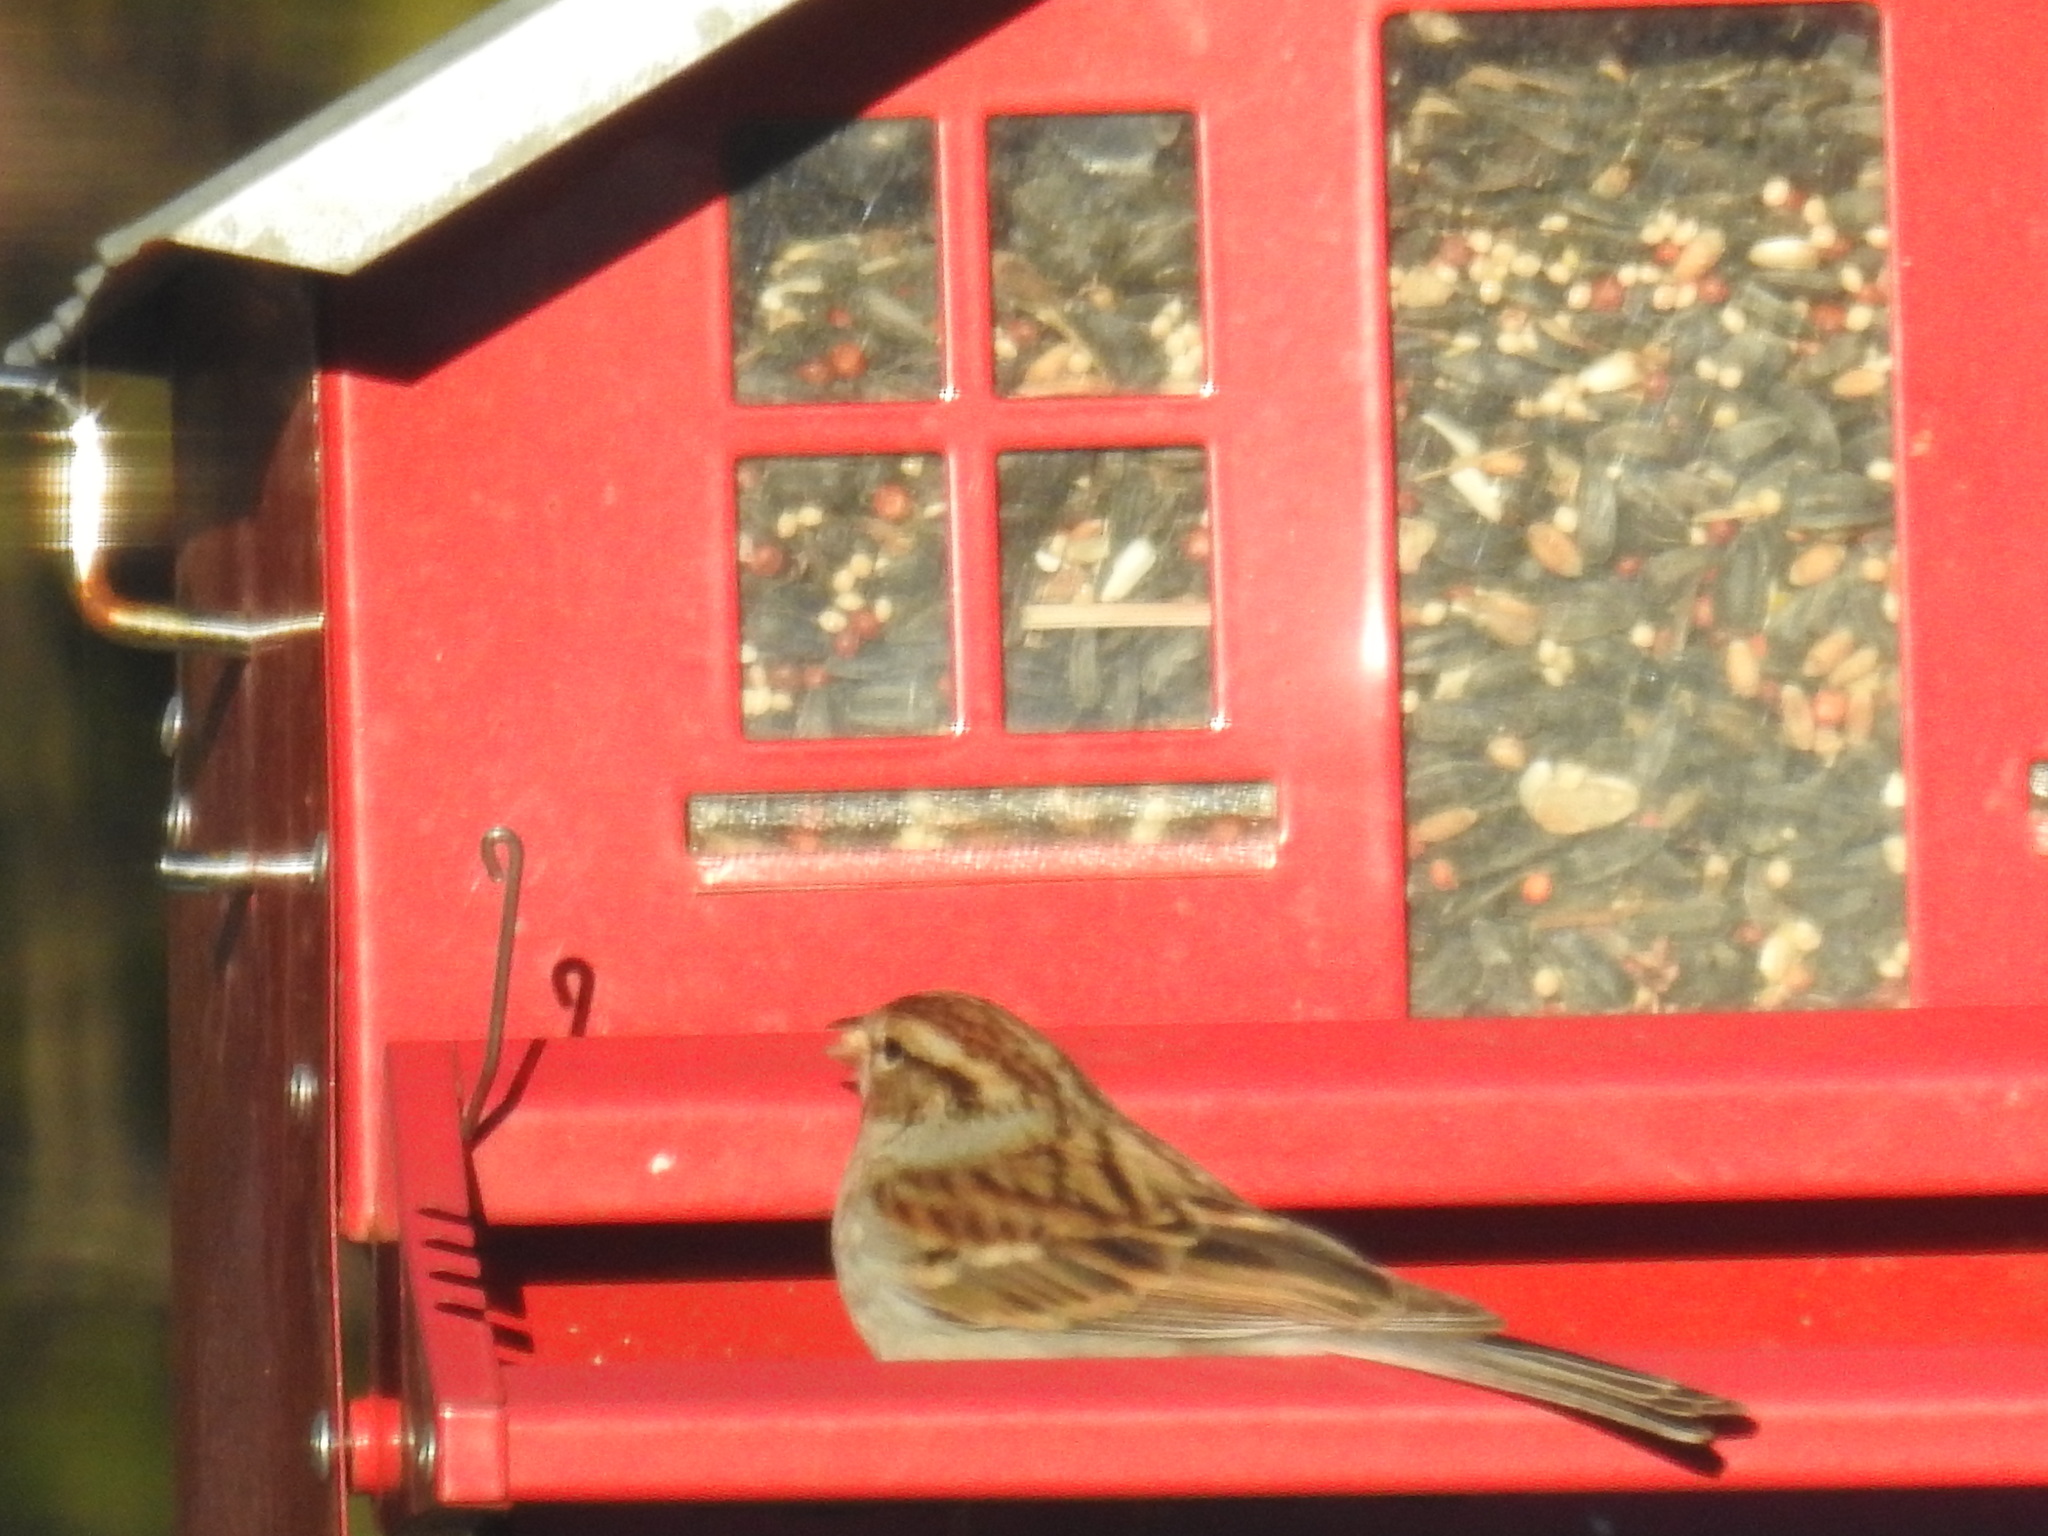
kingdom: Animalia
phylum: Chordata
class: Aves
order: Passeriformes
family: Passerellidae
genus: Spizella
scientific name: Spizella passerina
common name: Chipping sparrow
